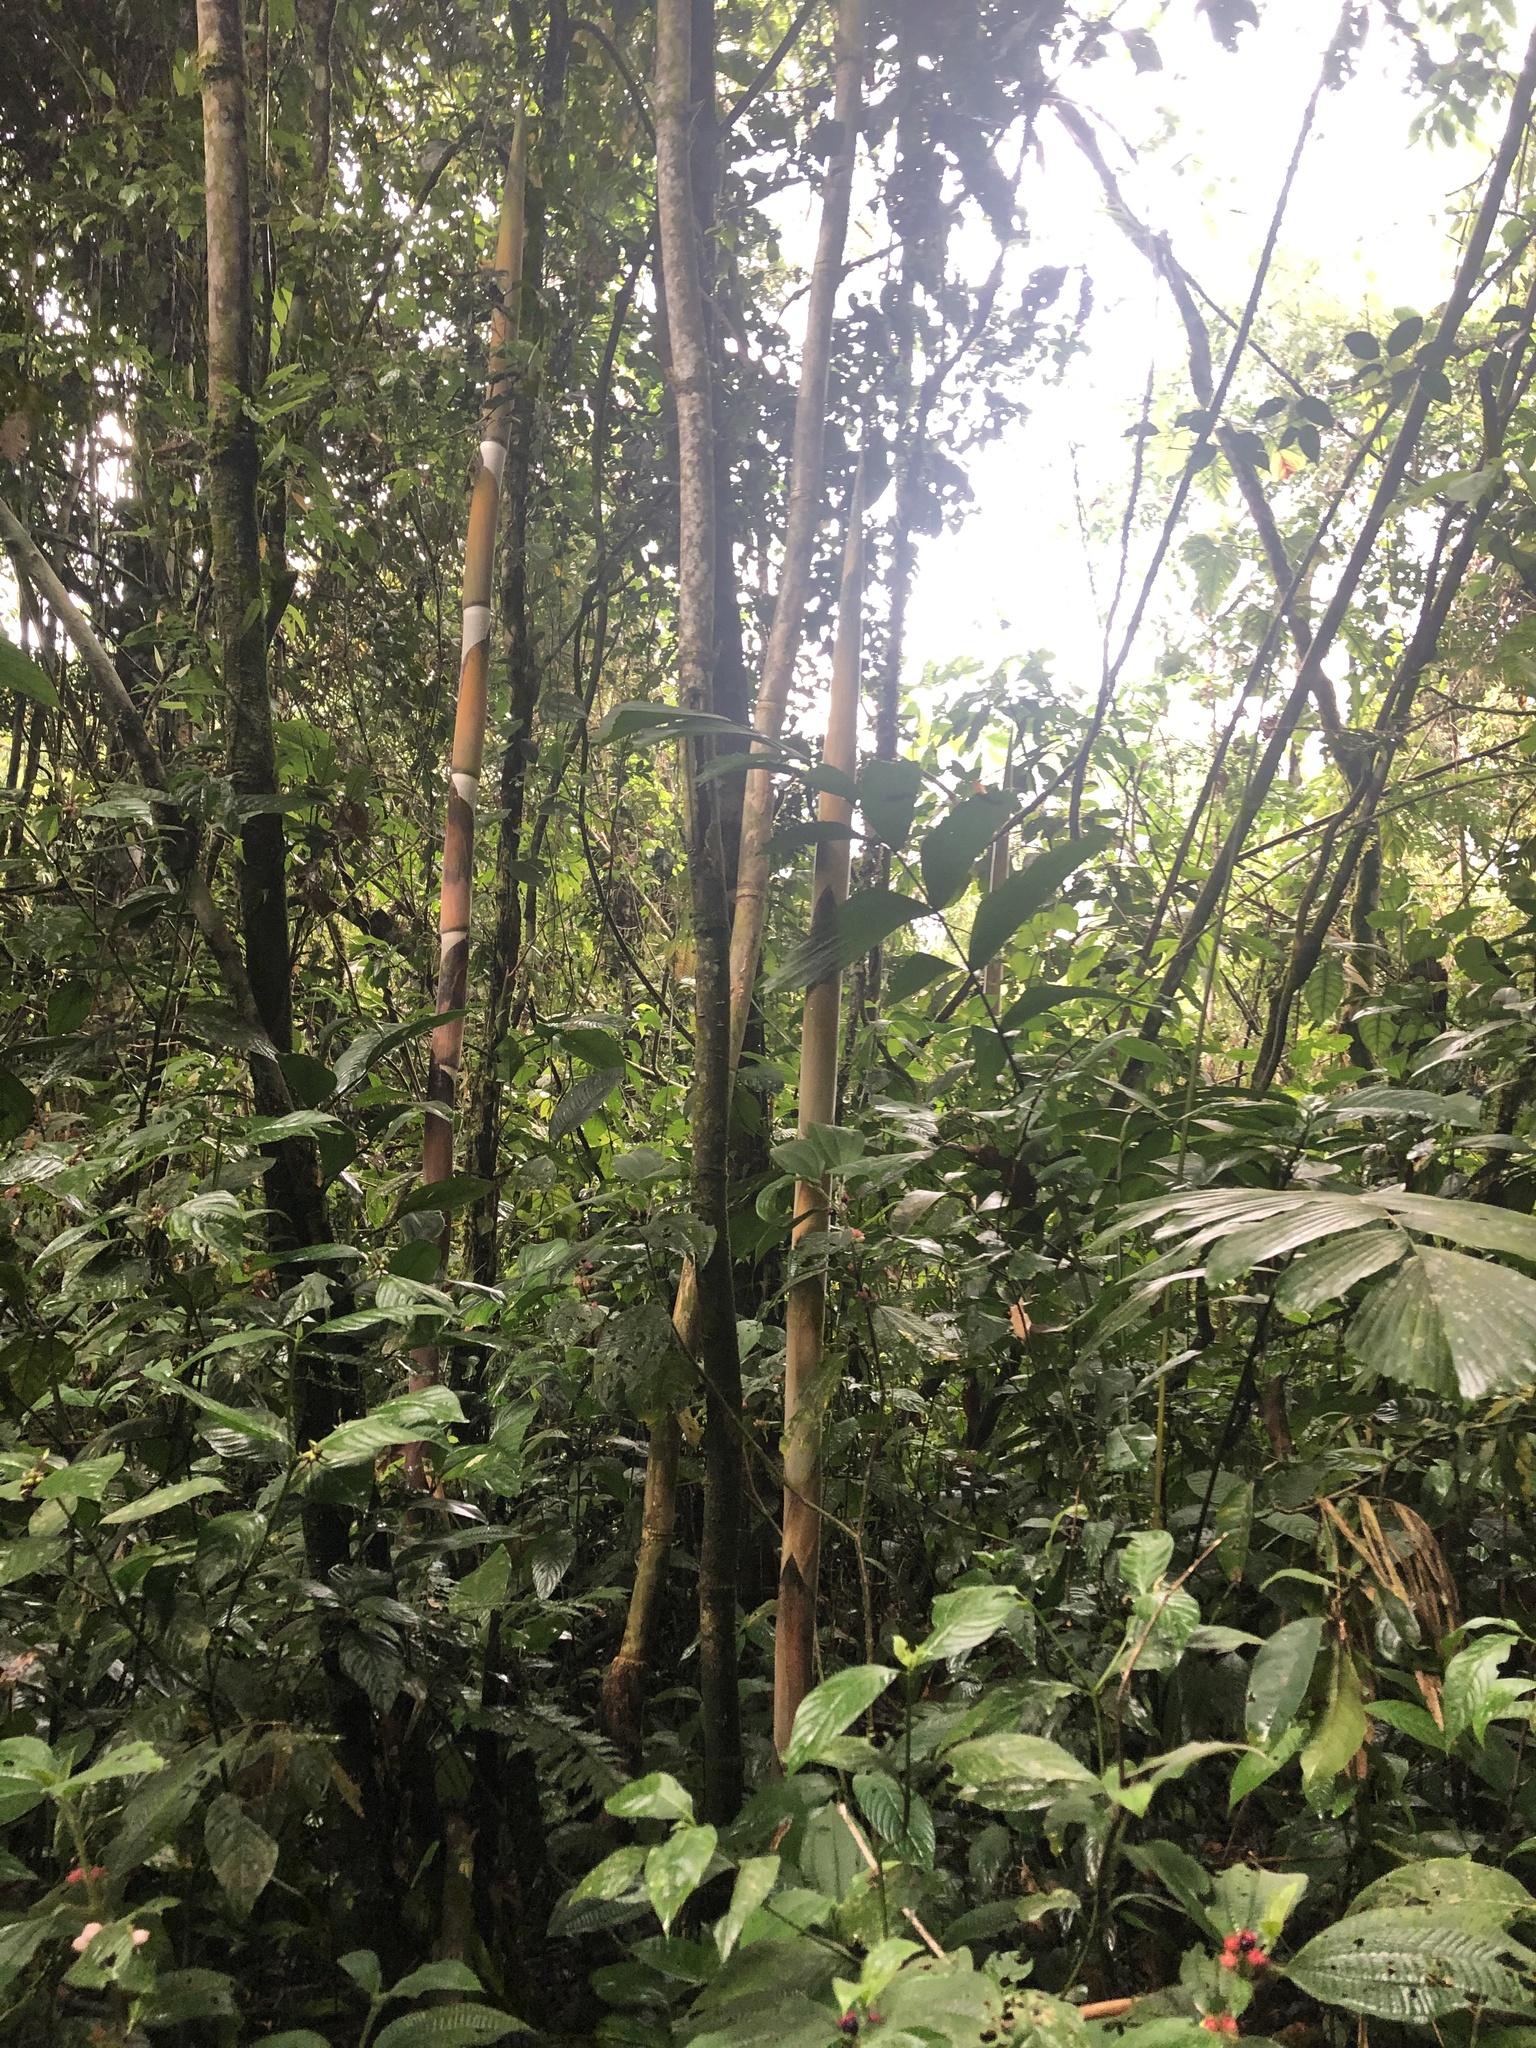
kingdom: Plantae
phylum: Tracheophyta
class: Liliopsida
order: Poales
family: Poaceae
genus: Guadua
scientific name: Guadua sarcocarpa
